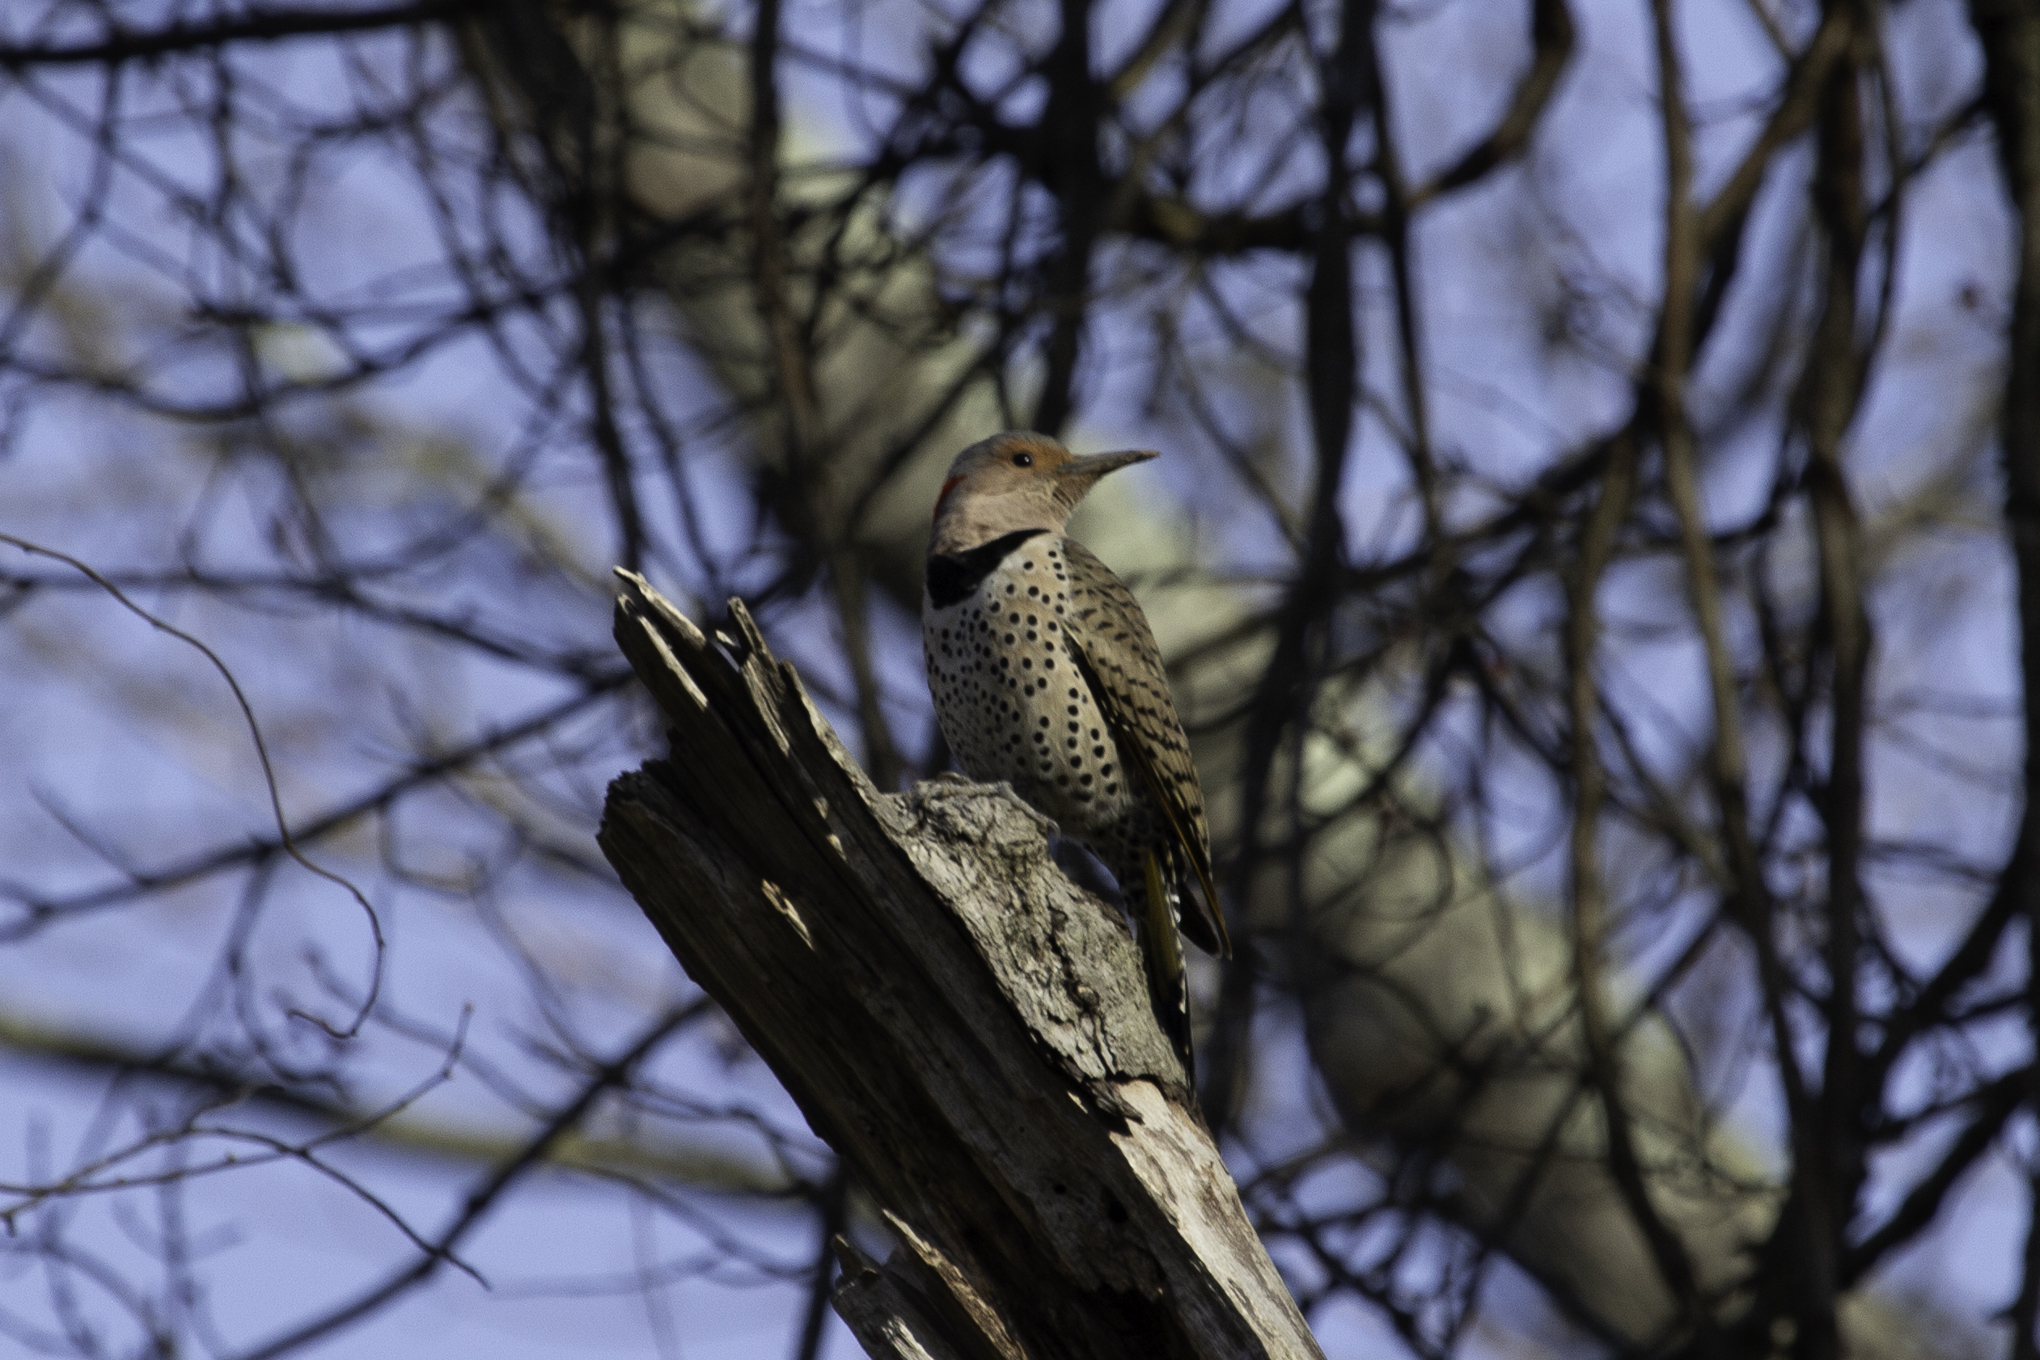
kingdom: Animalia
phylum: Chordata
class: Aves
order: Piciformes
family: Picidae
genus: Colaptes
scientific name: Colaptes auratus
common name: Northern flicker
